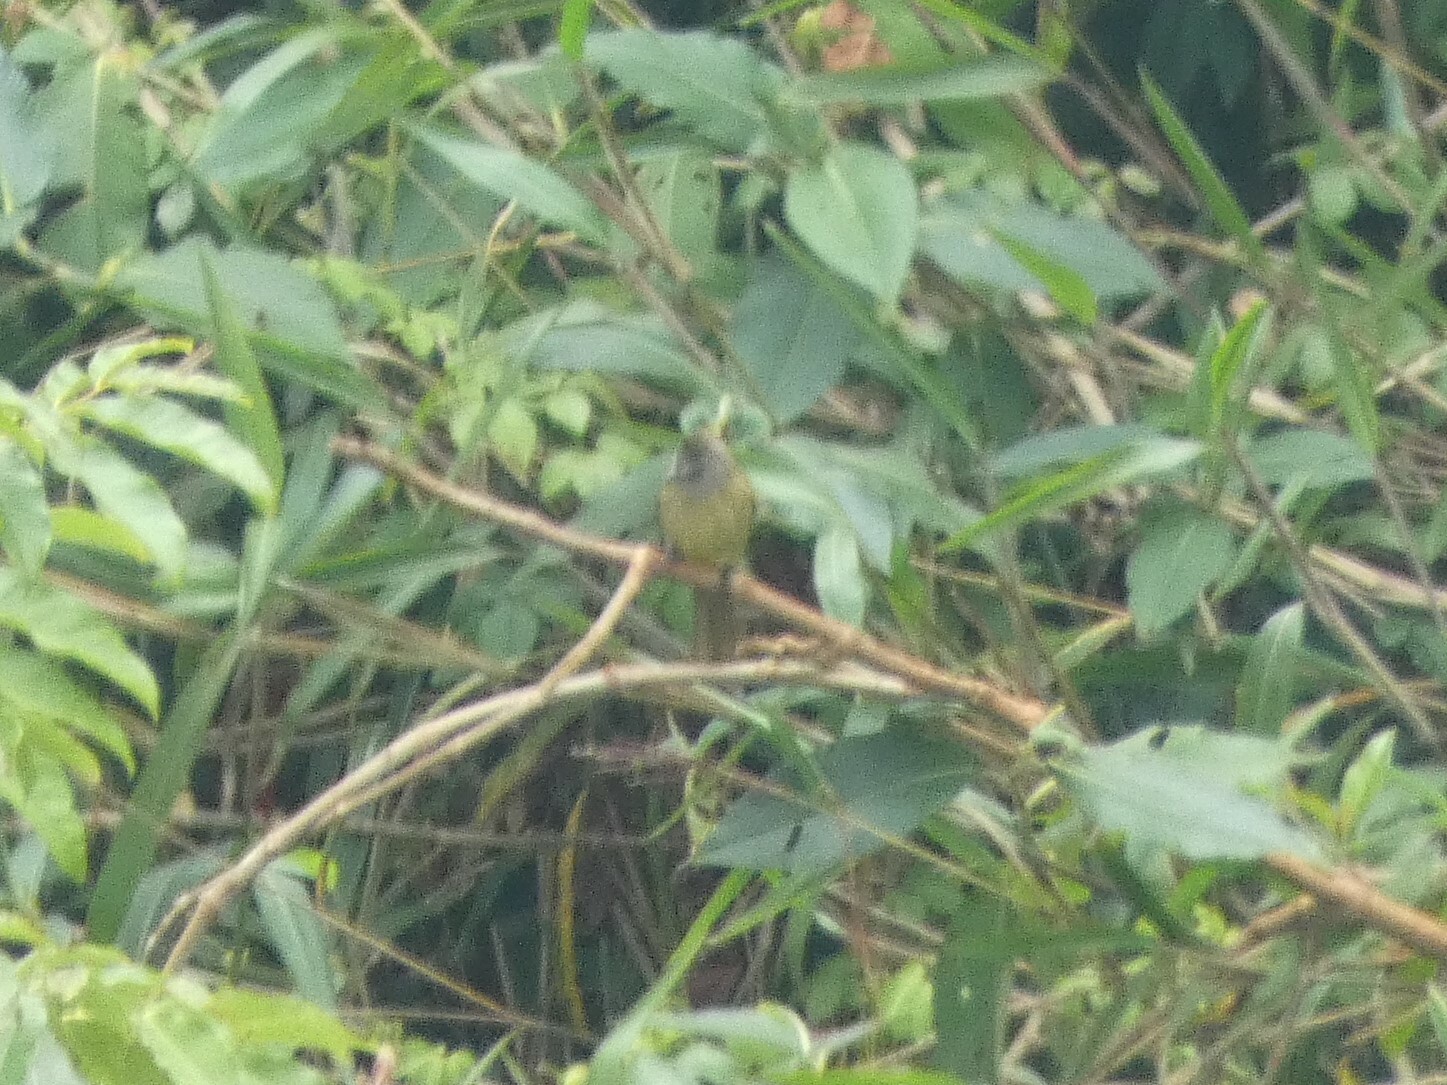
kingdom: Animalia
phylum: Chordata
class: Aves
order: Passeriformes
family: Pycnonotidae
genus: Pycnonotus
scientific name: Pycnonotus flavescens
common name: Flavescent bulbul
